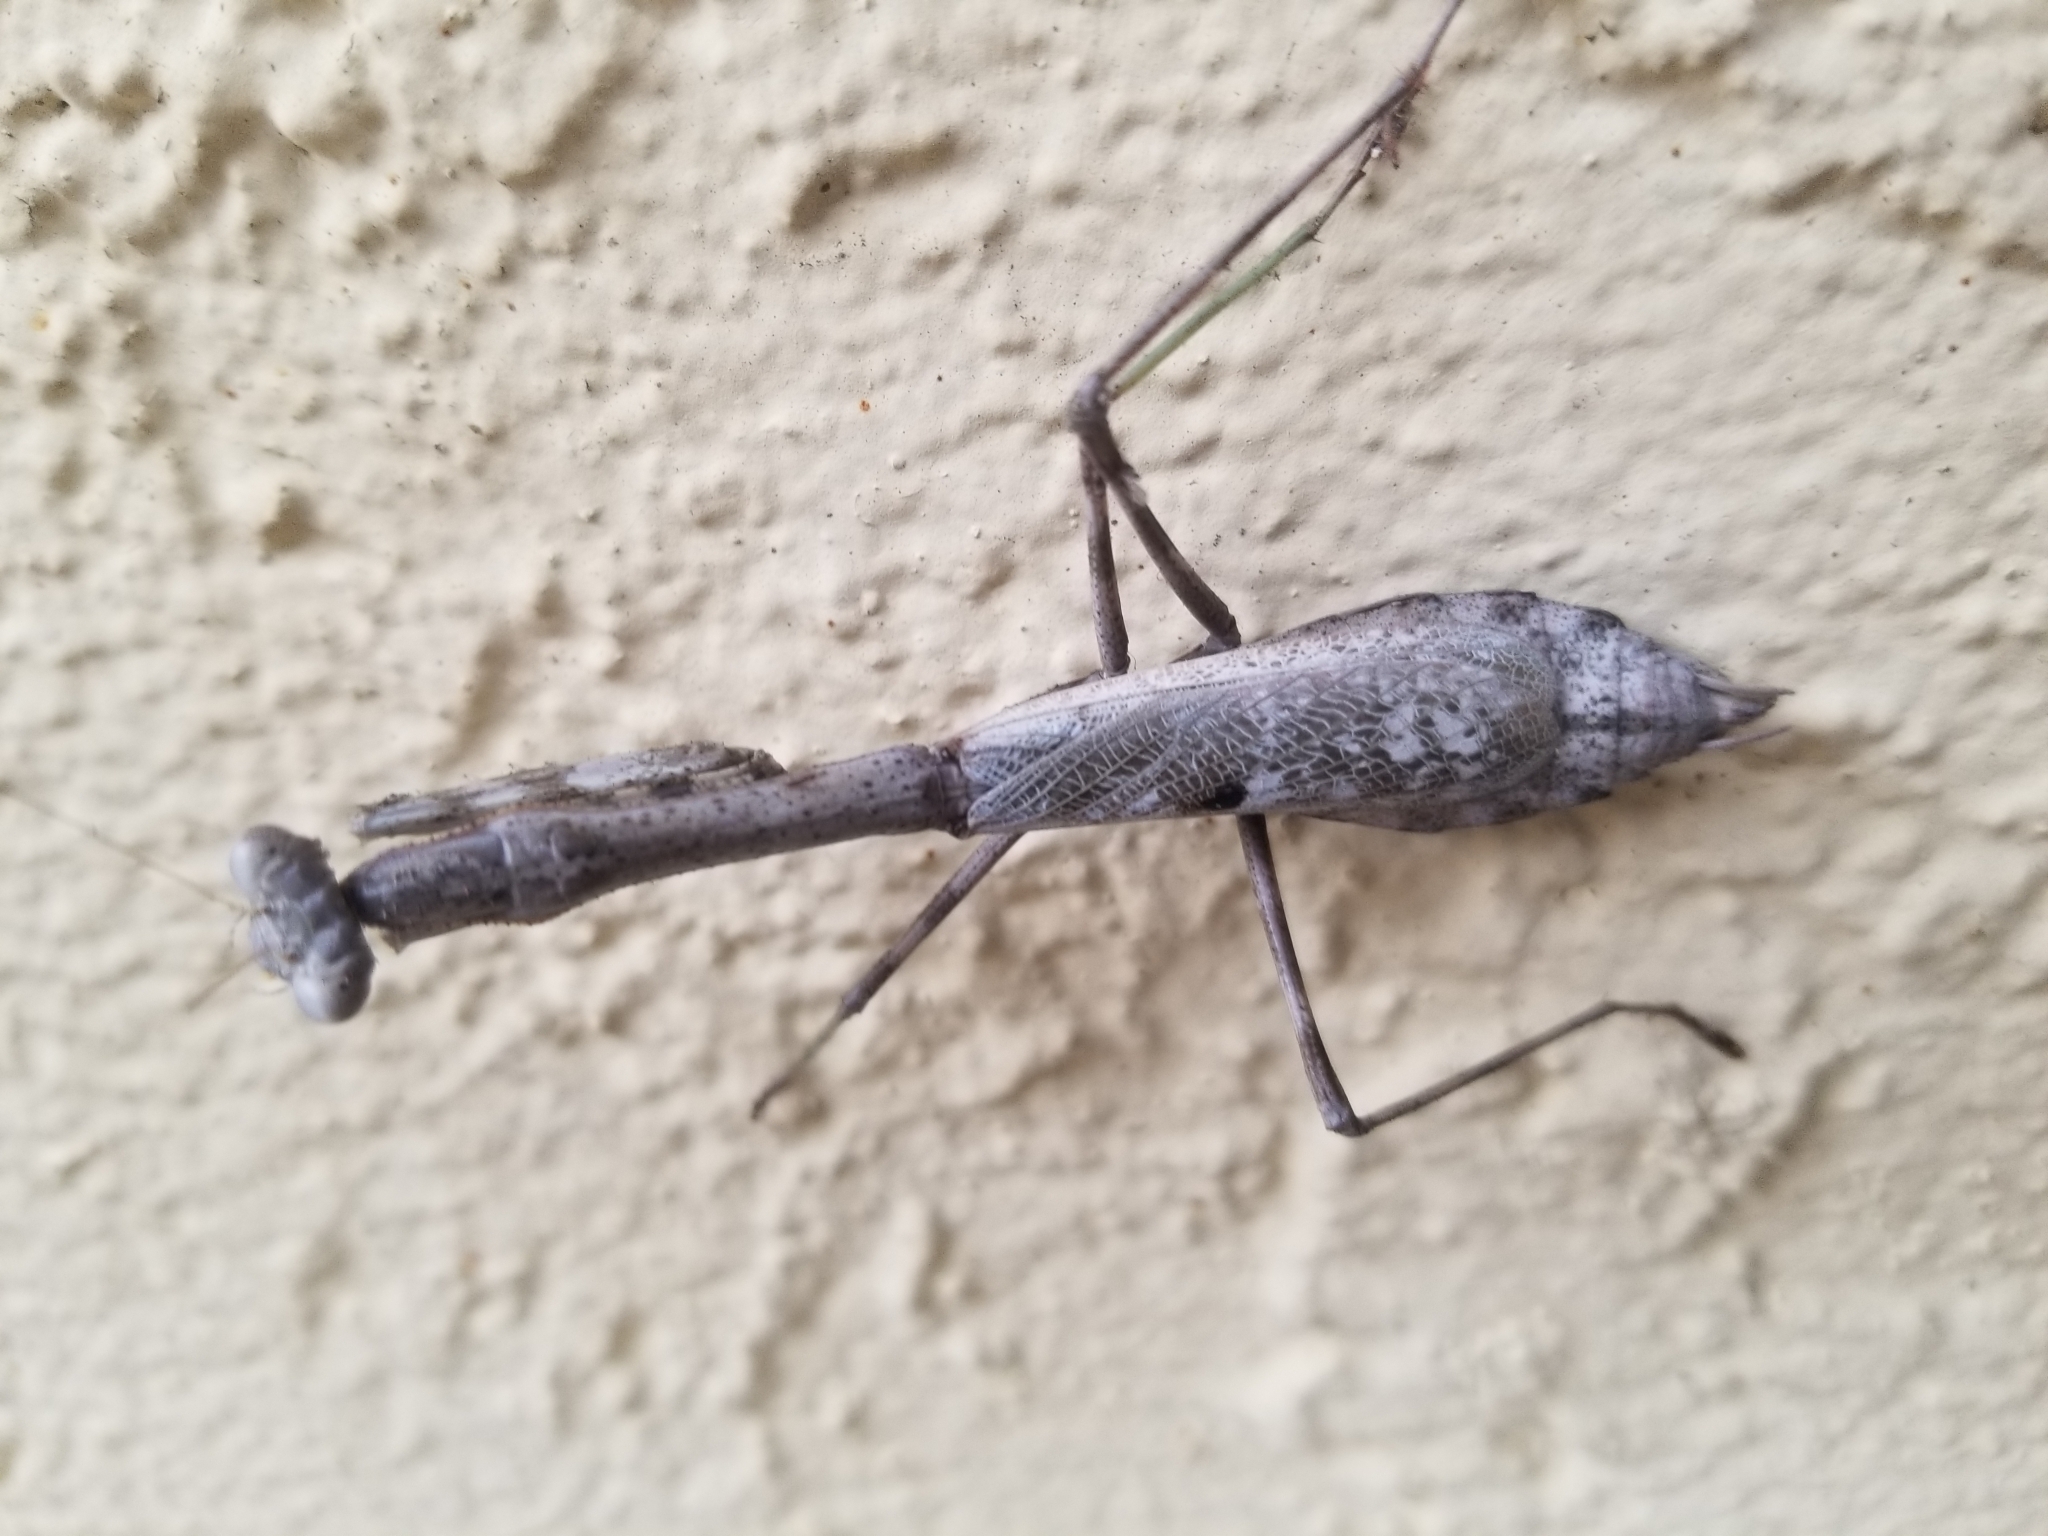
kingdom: Animalia
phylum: Arthropoda
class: Insecta
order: Mantodea
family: Mantidae
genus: Stagmomantis
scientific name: Stagmomantis carolina
